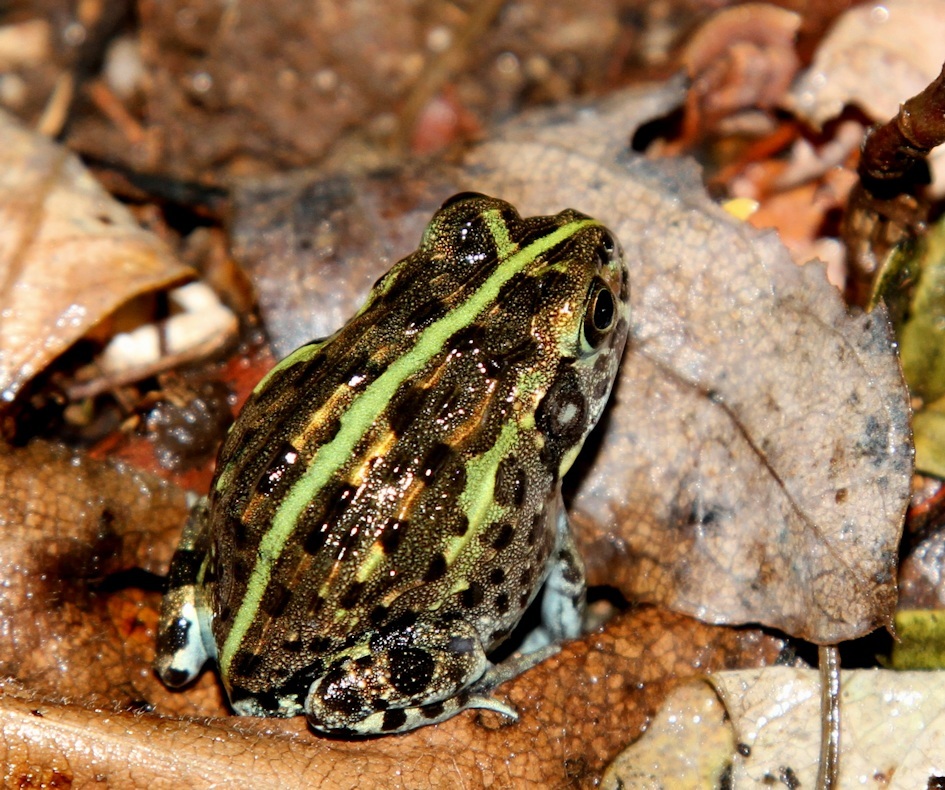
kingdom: Animalia
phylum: Chordata
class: Amphibia
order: Anura
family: Pyxicephalidae
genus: Pyxicephalus
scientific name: Pyxicephalus edulis
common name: Peter's bullfrog
